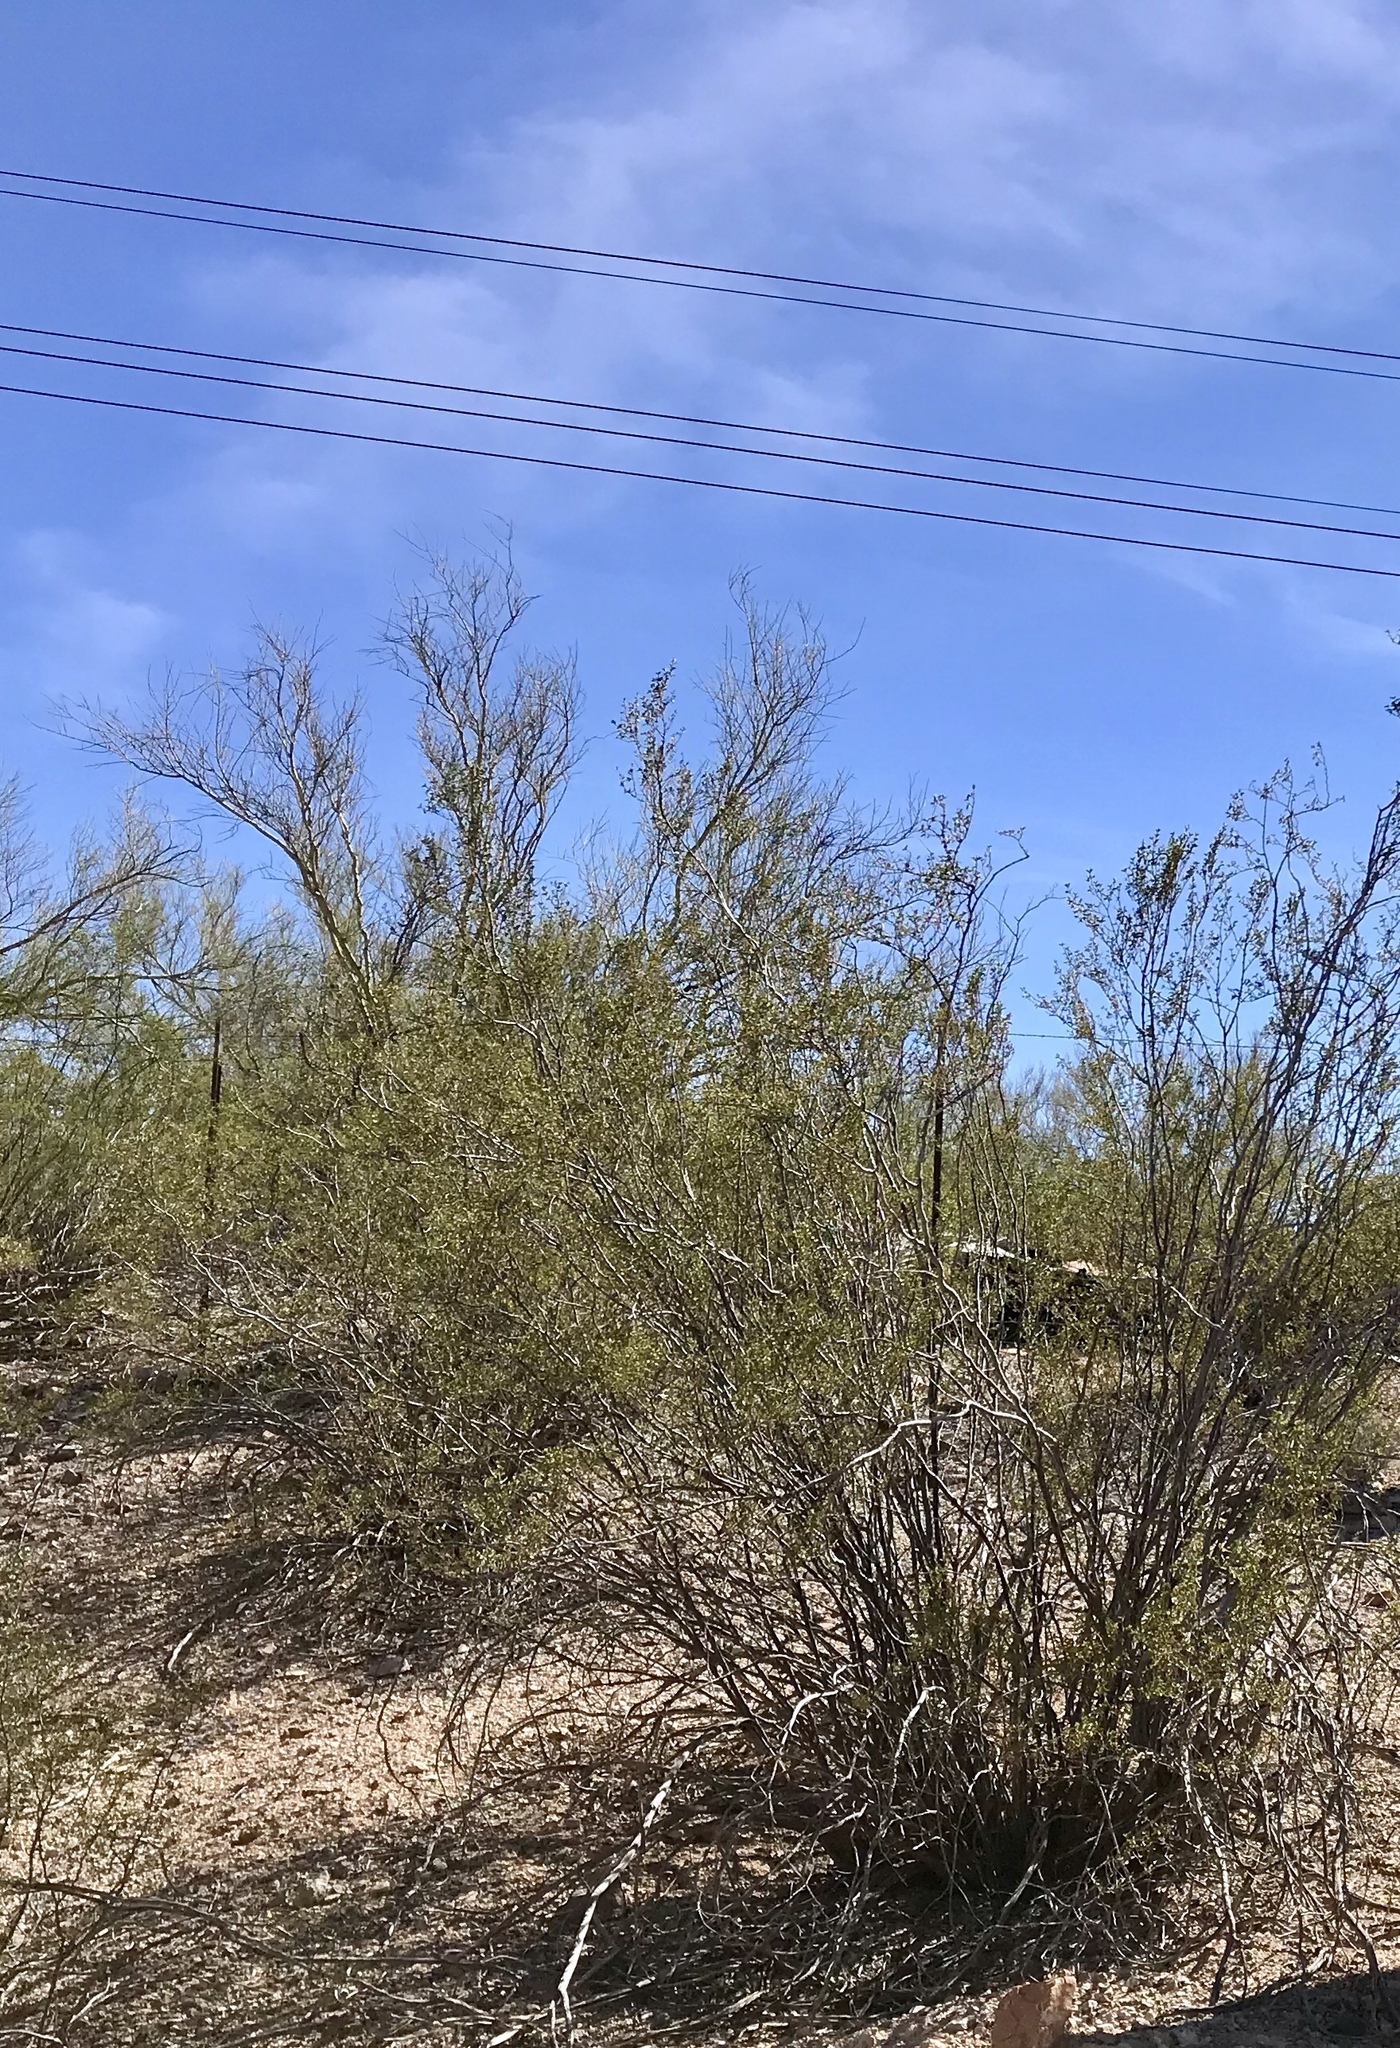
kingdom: Plantae
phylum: Tracheophyta
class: Magnoliopsida
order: Zygophyllales
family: Zygophyllaceae
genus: Larrea
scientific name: Larrea tridentata
